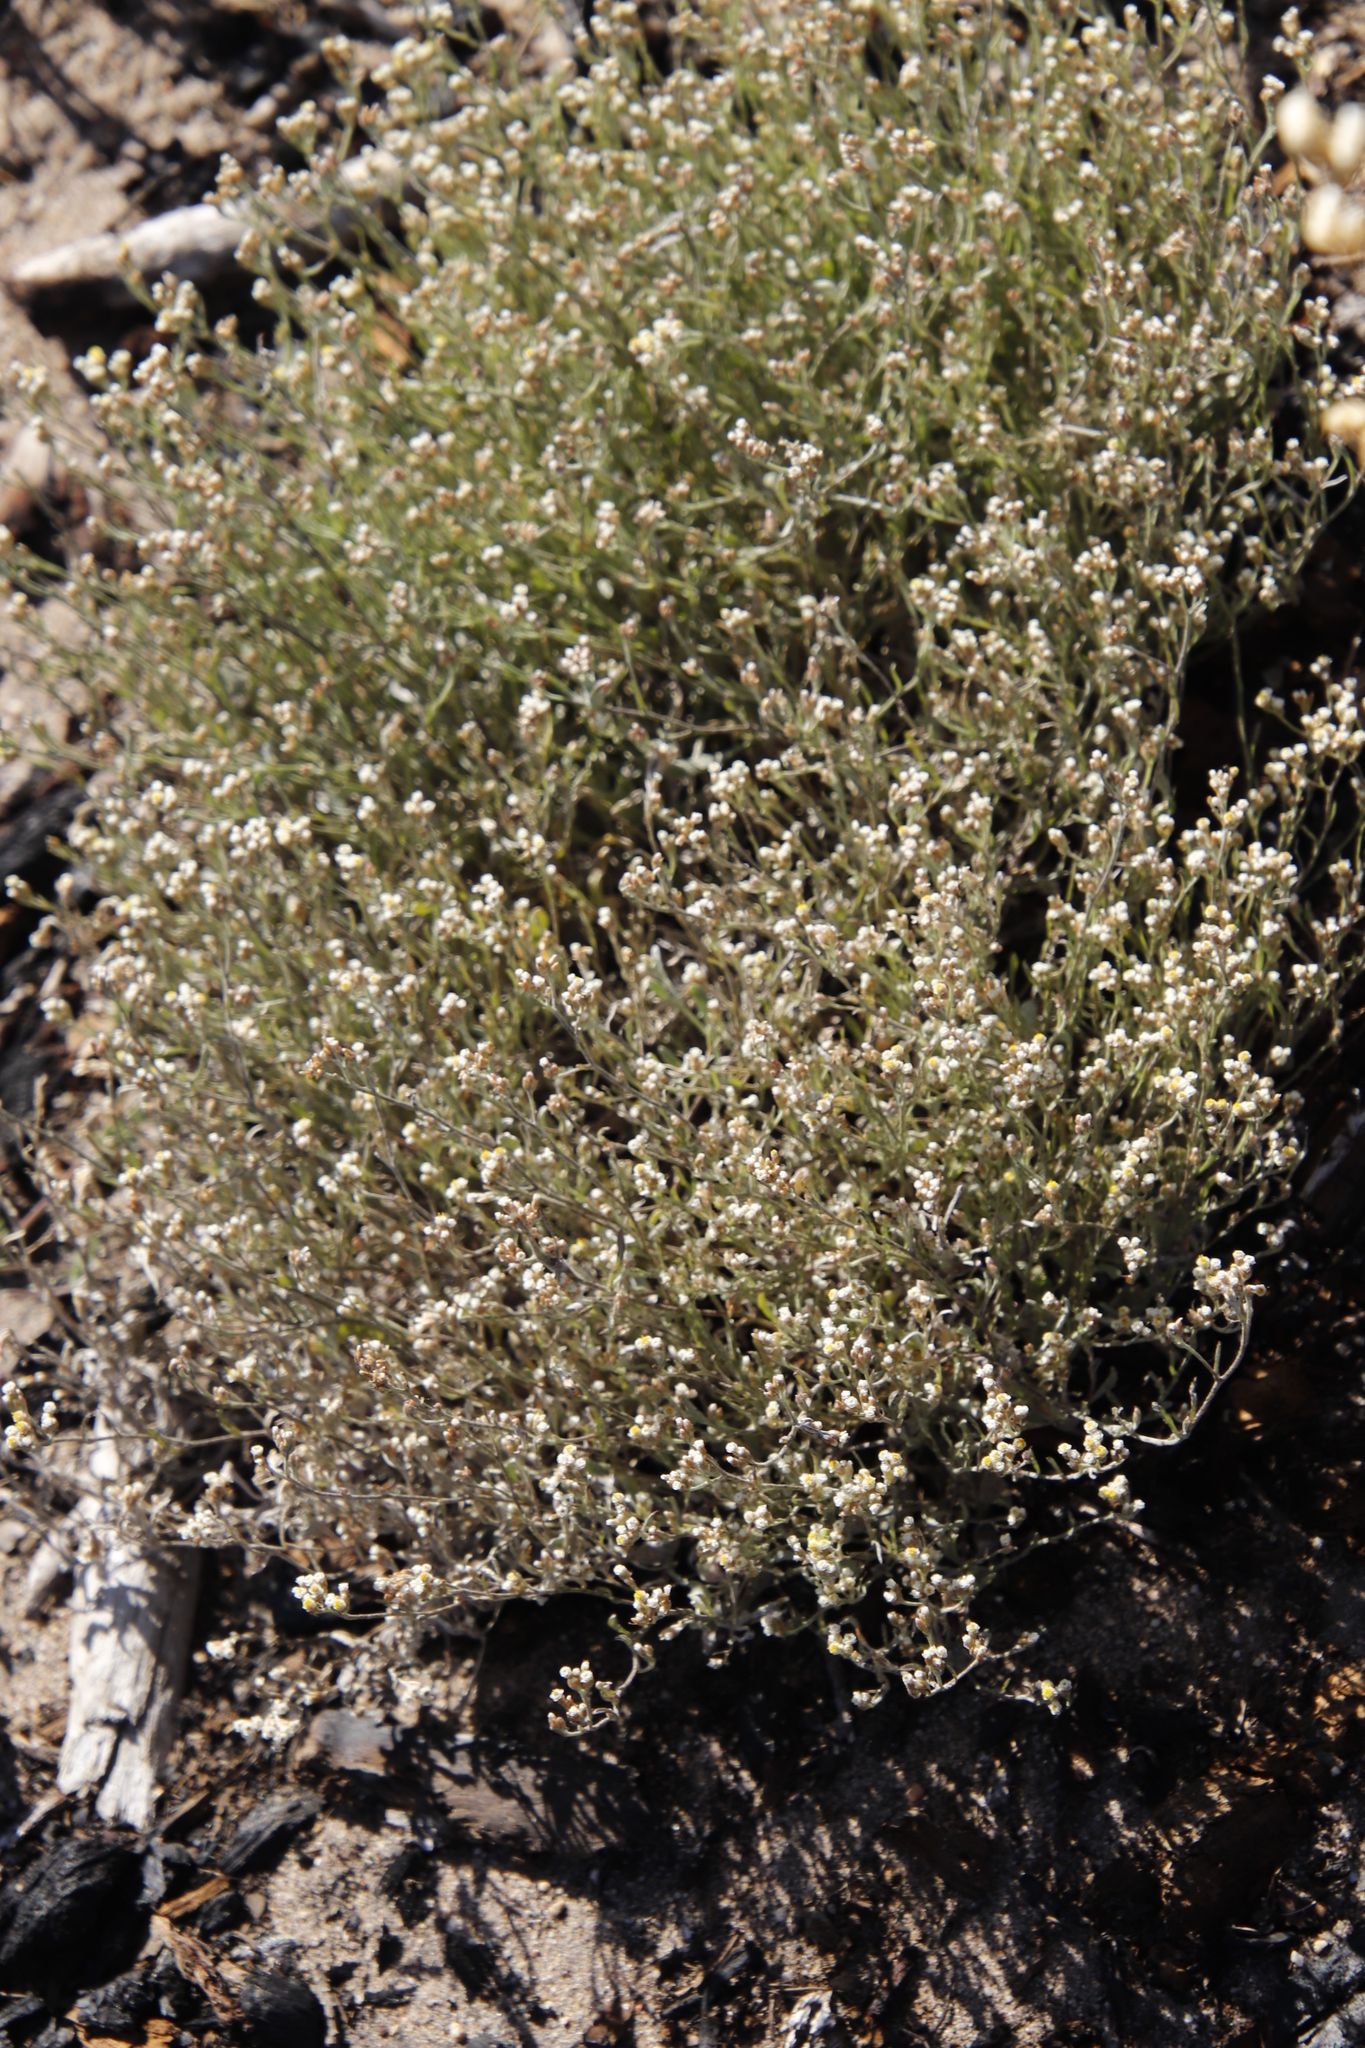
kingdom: Plantae
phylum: Tracheophyta
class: Magnoliopsida
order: Asterales
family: Asteraceae
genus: Helichrysum
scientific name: Helichrysum indicum
